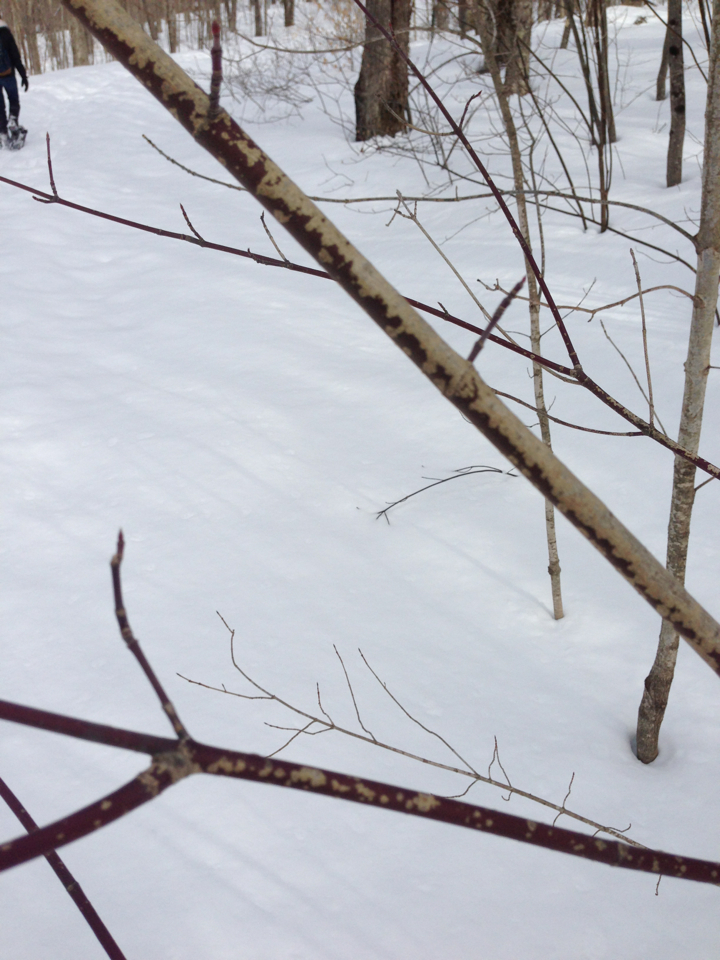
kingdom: Plantae
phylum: Tracheophyta
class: Magnoliopsida
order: Sapindales
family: Sapindaceae
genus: Acer
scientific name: Acer spicatum
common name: Mountain maple
